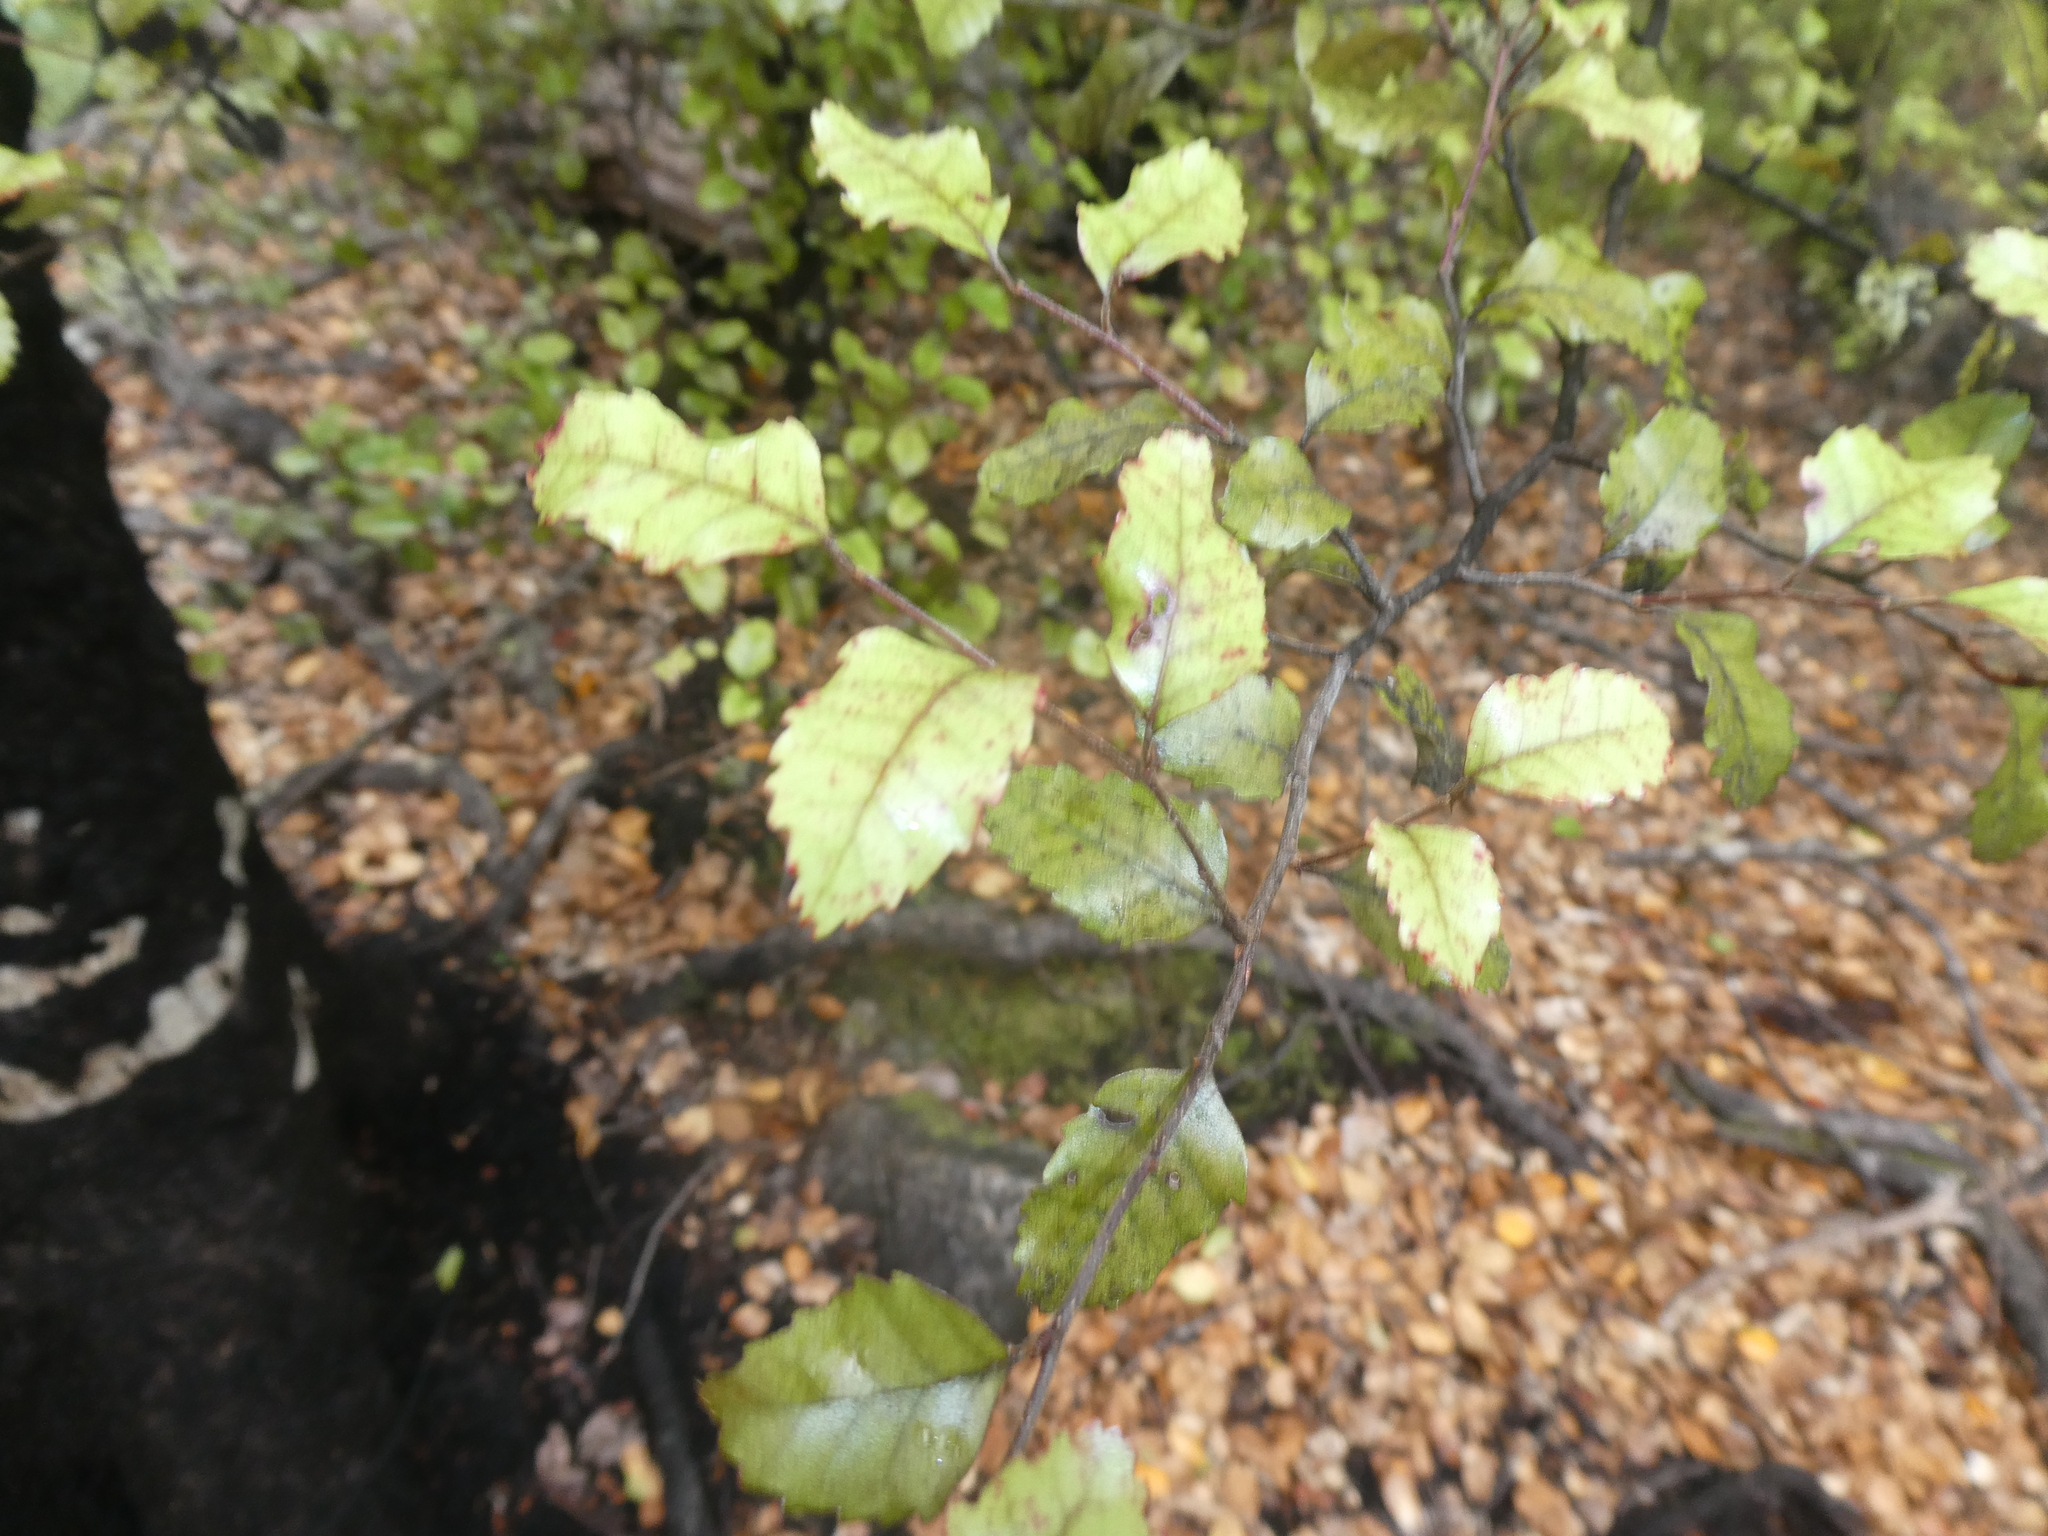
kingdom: Plantae
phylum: Tracheophyta
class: Magnoliopsida
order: Fagales
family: Nothofagaceae
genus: Nothofagus
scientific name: Nothofagus truncata
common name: Hard beech
